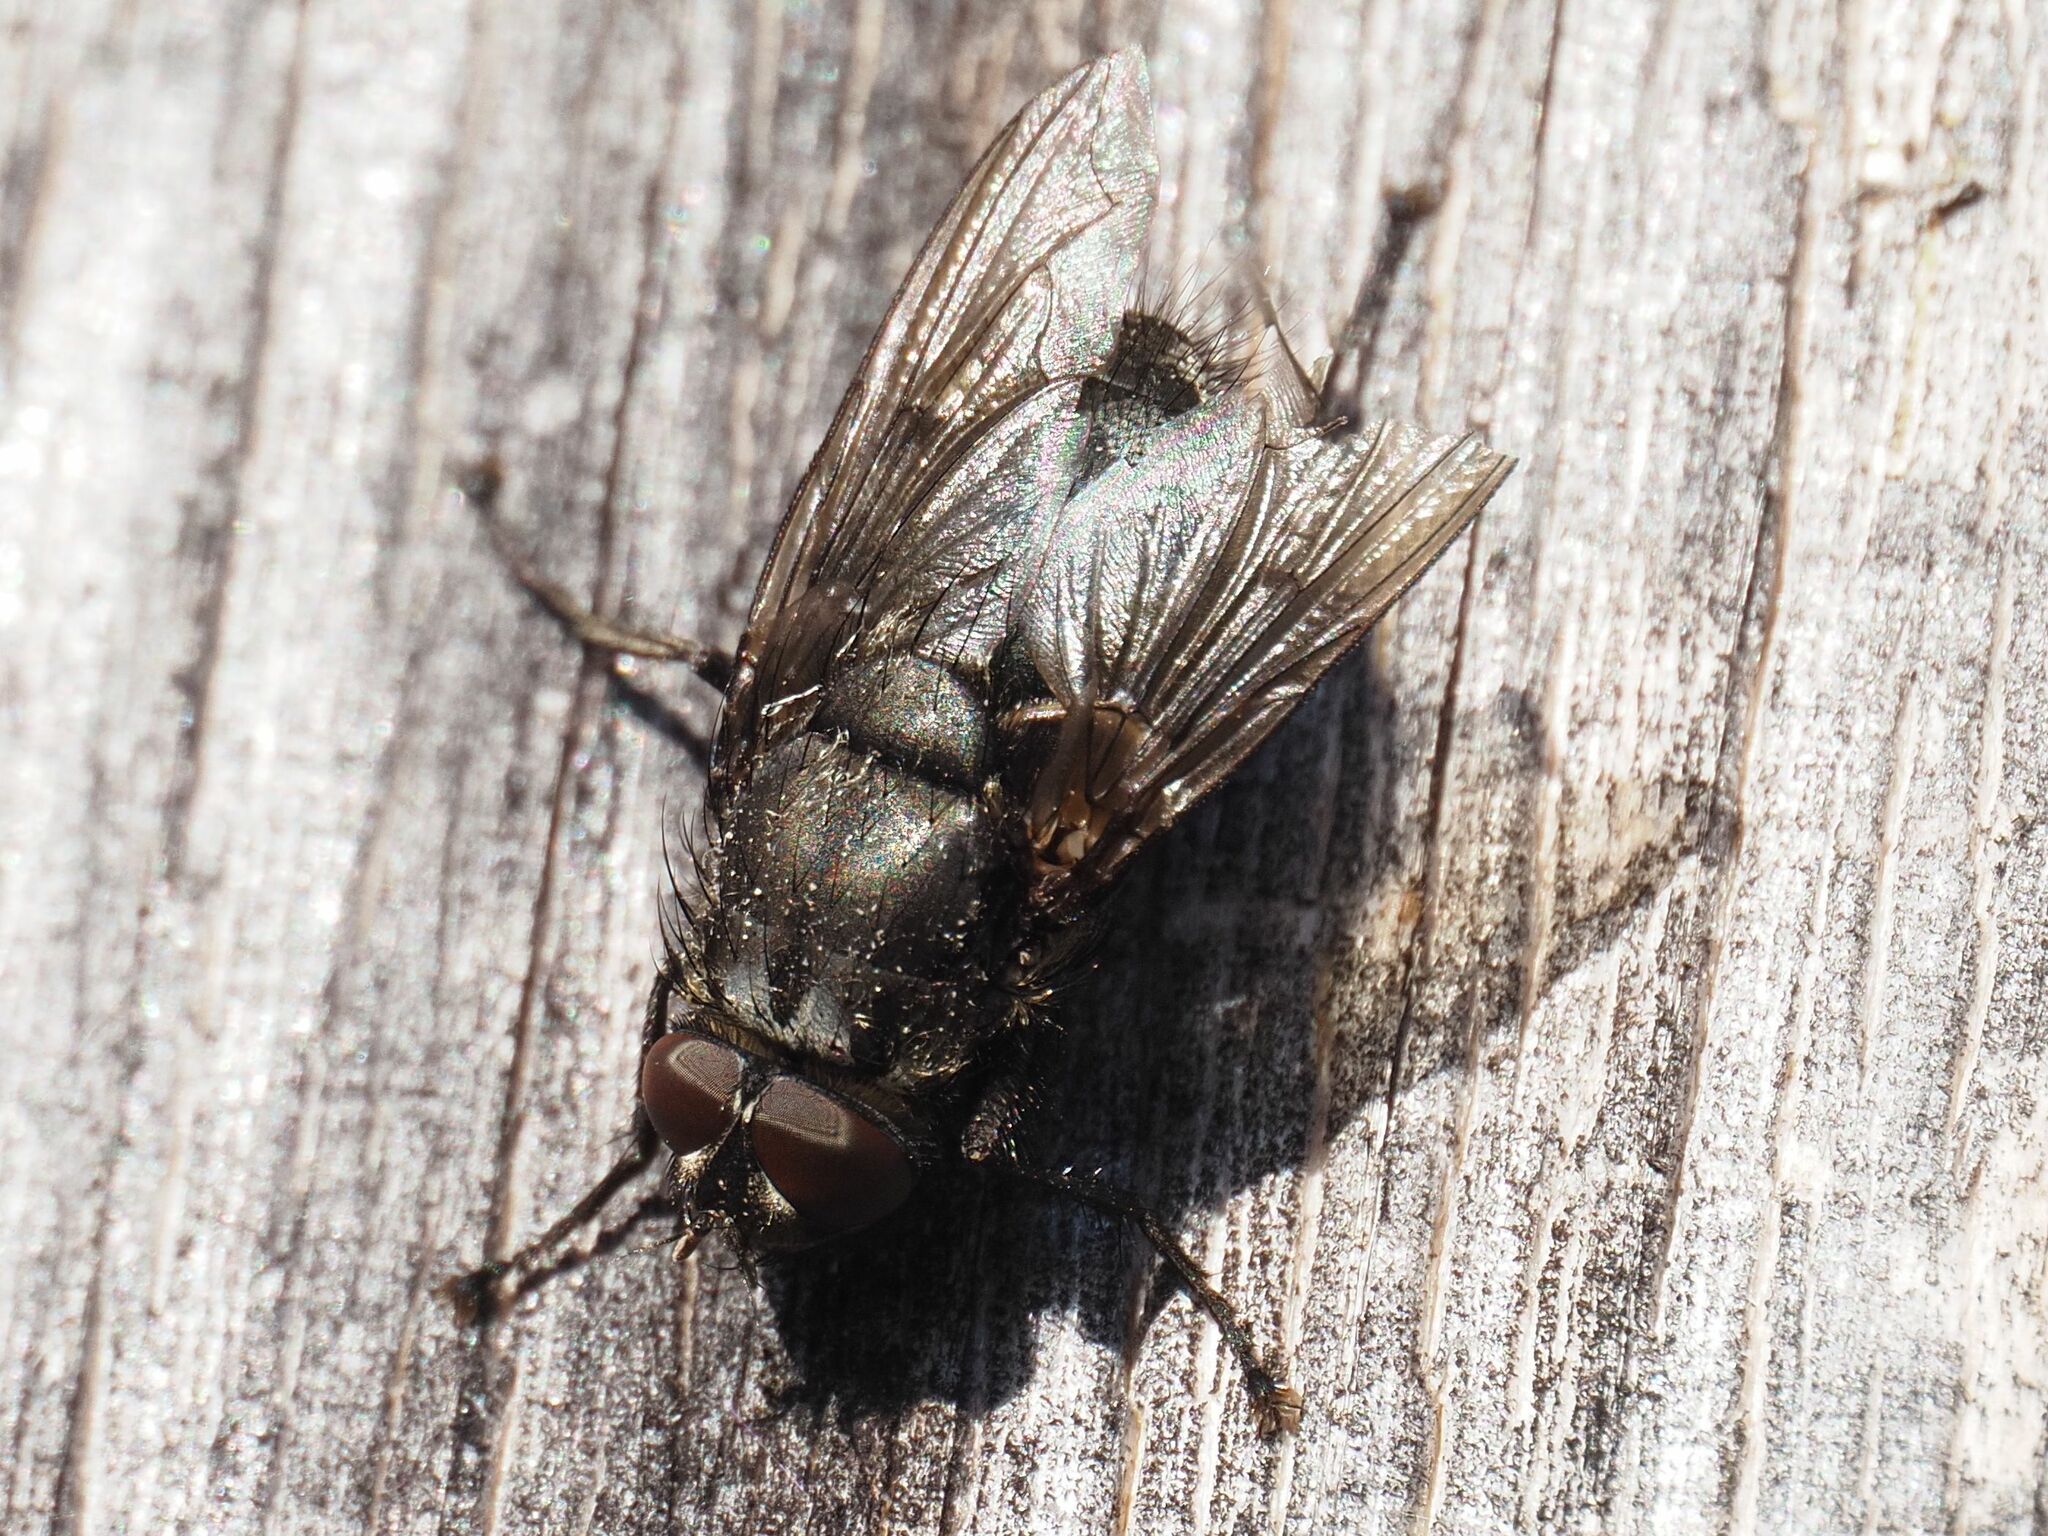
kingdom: Animalia
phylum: Arthropoda
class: Insecta
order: Diptera
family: Polleniidae
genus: Pollenia
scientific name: Pollenia vagabunda
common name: Vagabund cluster fly
